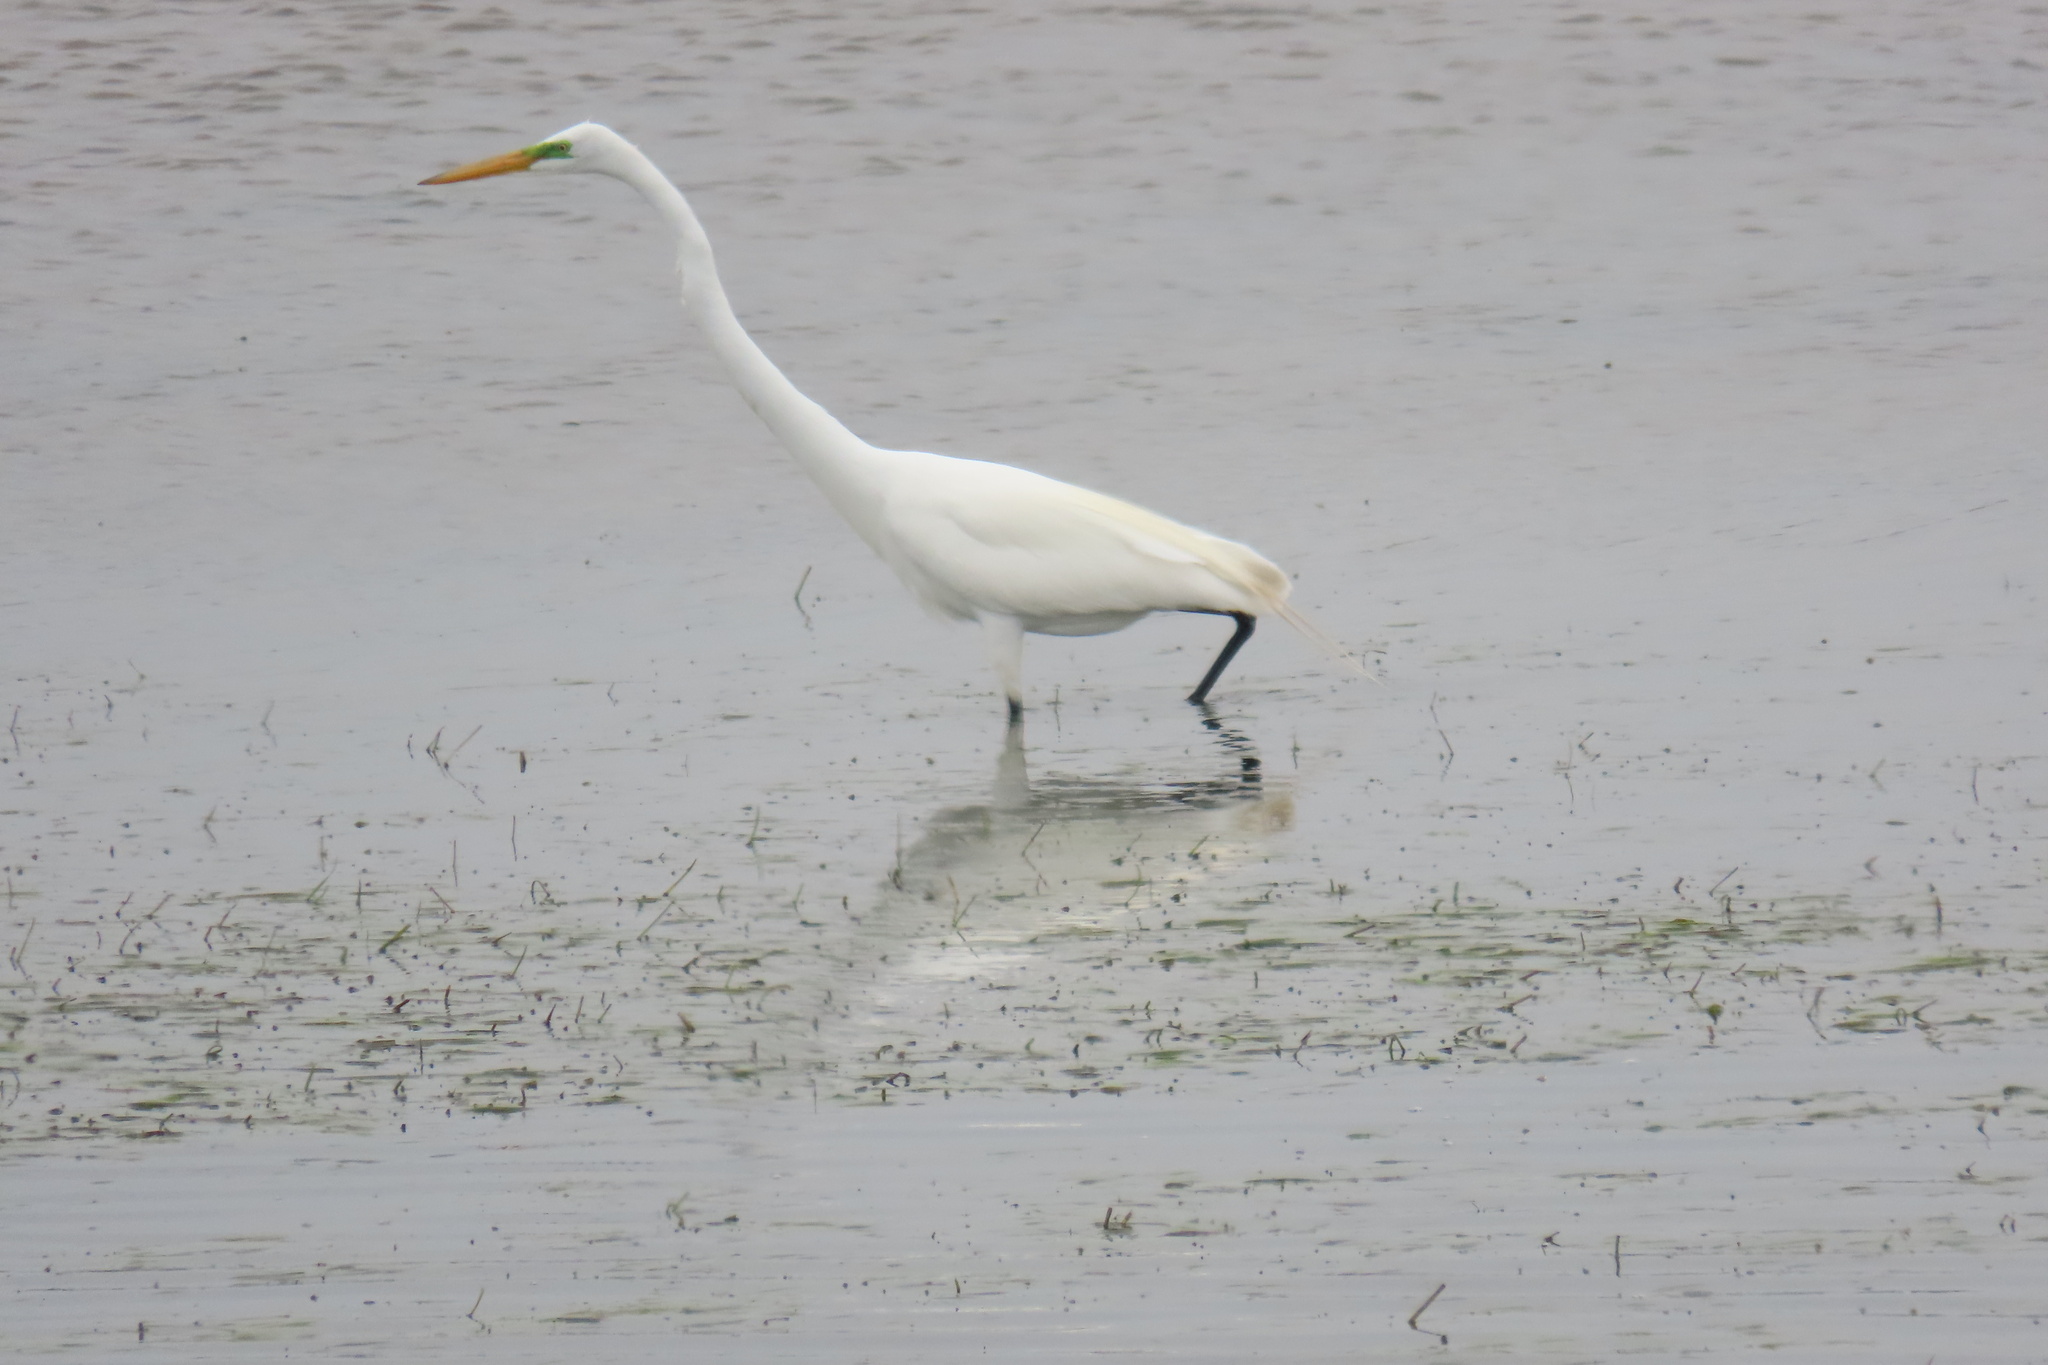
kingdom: Animalia
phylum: Chordata
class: Aves
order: Pelecaniformes
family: Ardeidae
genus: Ardea
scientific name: Ardea alba
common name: Great egret
